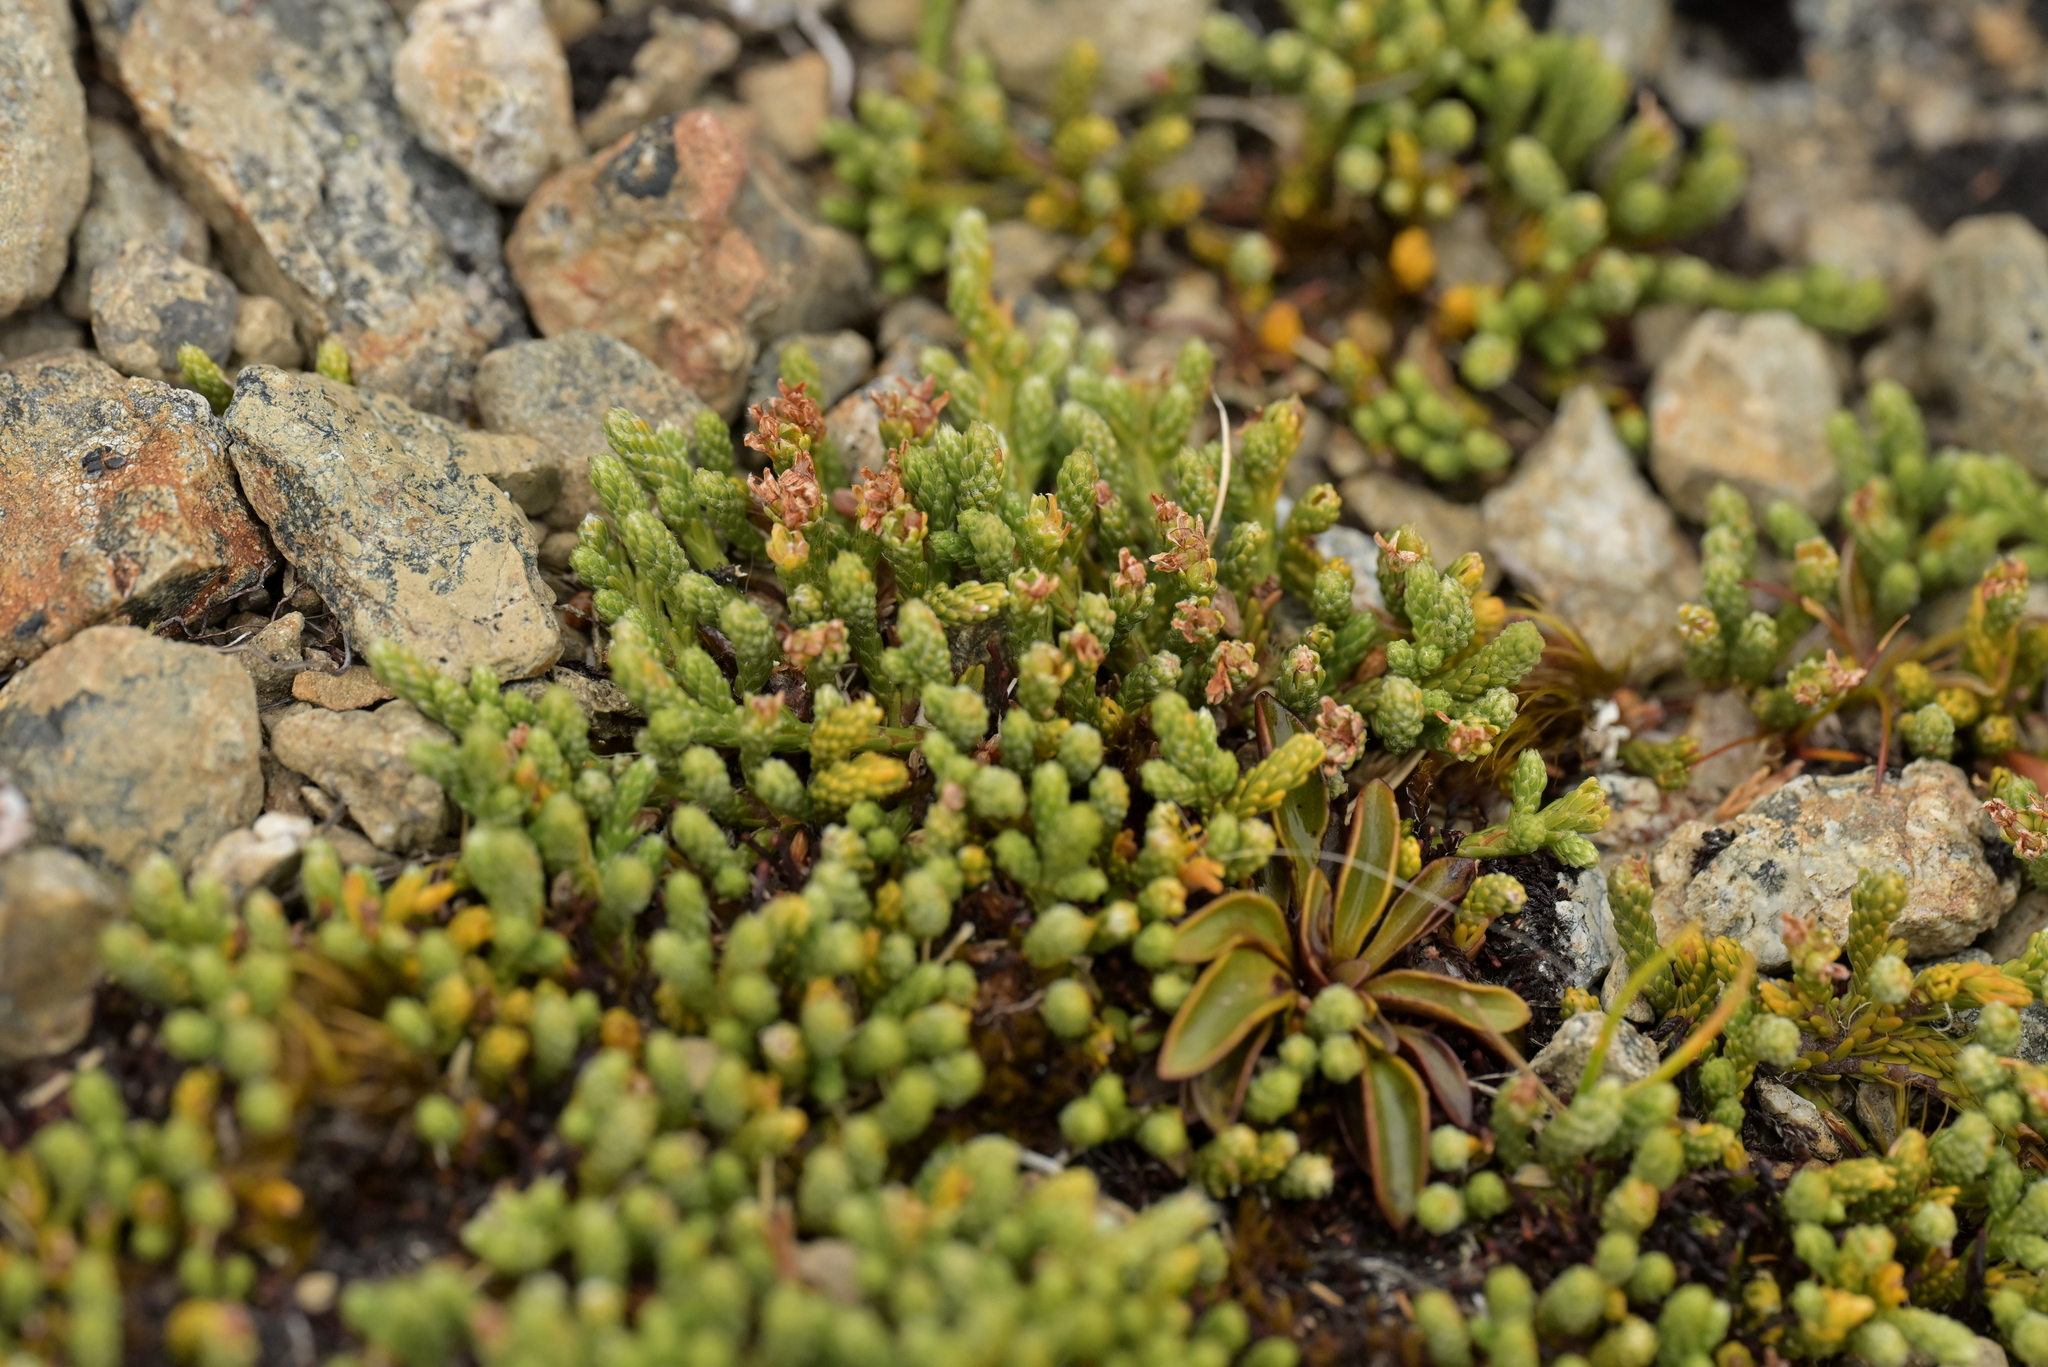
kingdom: Plantae
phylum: Tracheophyta
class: Magnoliopsida
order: Malvales
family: Thymelaeaceae
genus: Kelleria
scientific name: Kelleria dieffenbachii
